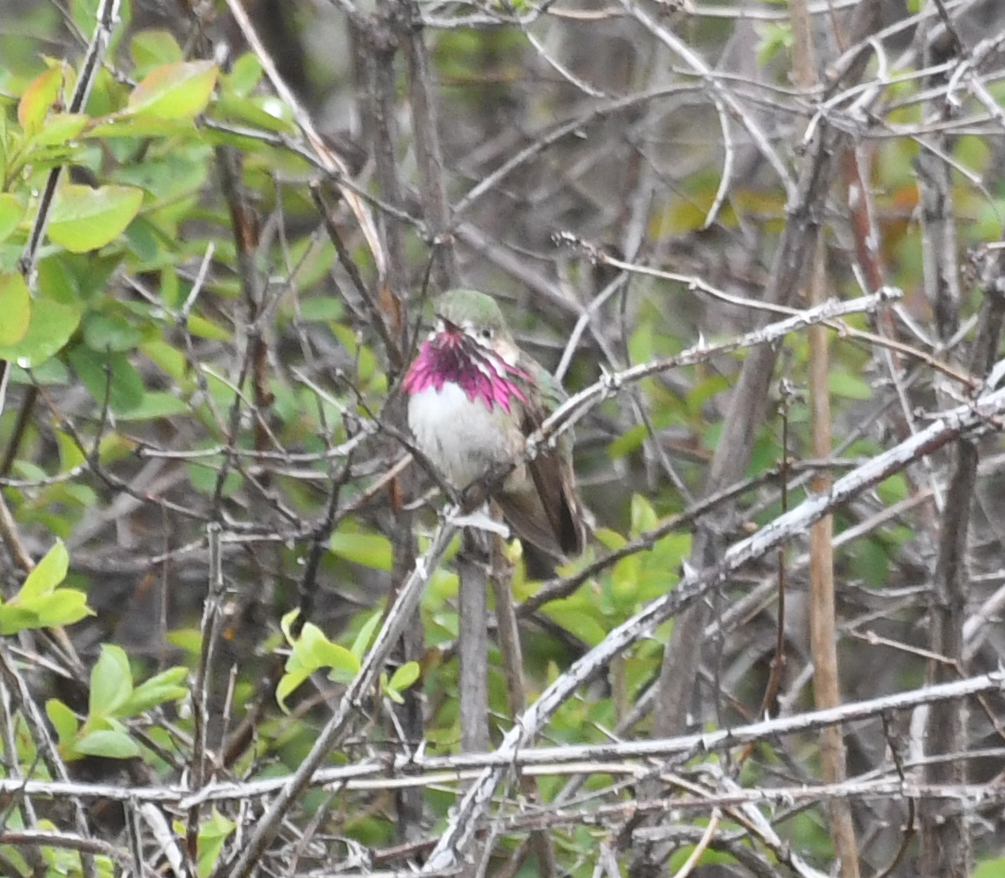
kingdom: Animalia
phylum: Chordata
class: Aves
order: Apodiformes
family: Trochilidae
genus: Selasphorus
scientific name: Selasphorus calliope
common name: Calliope hummingbird
